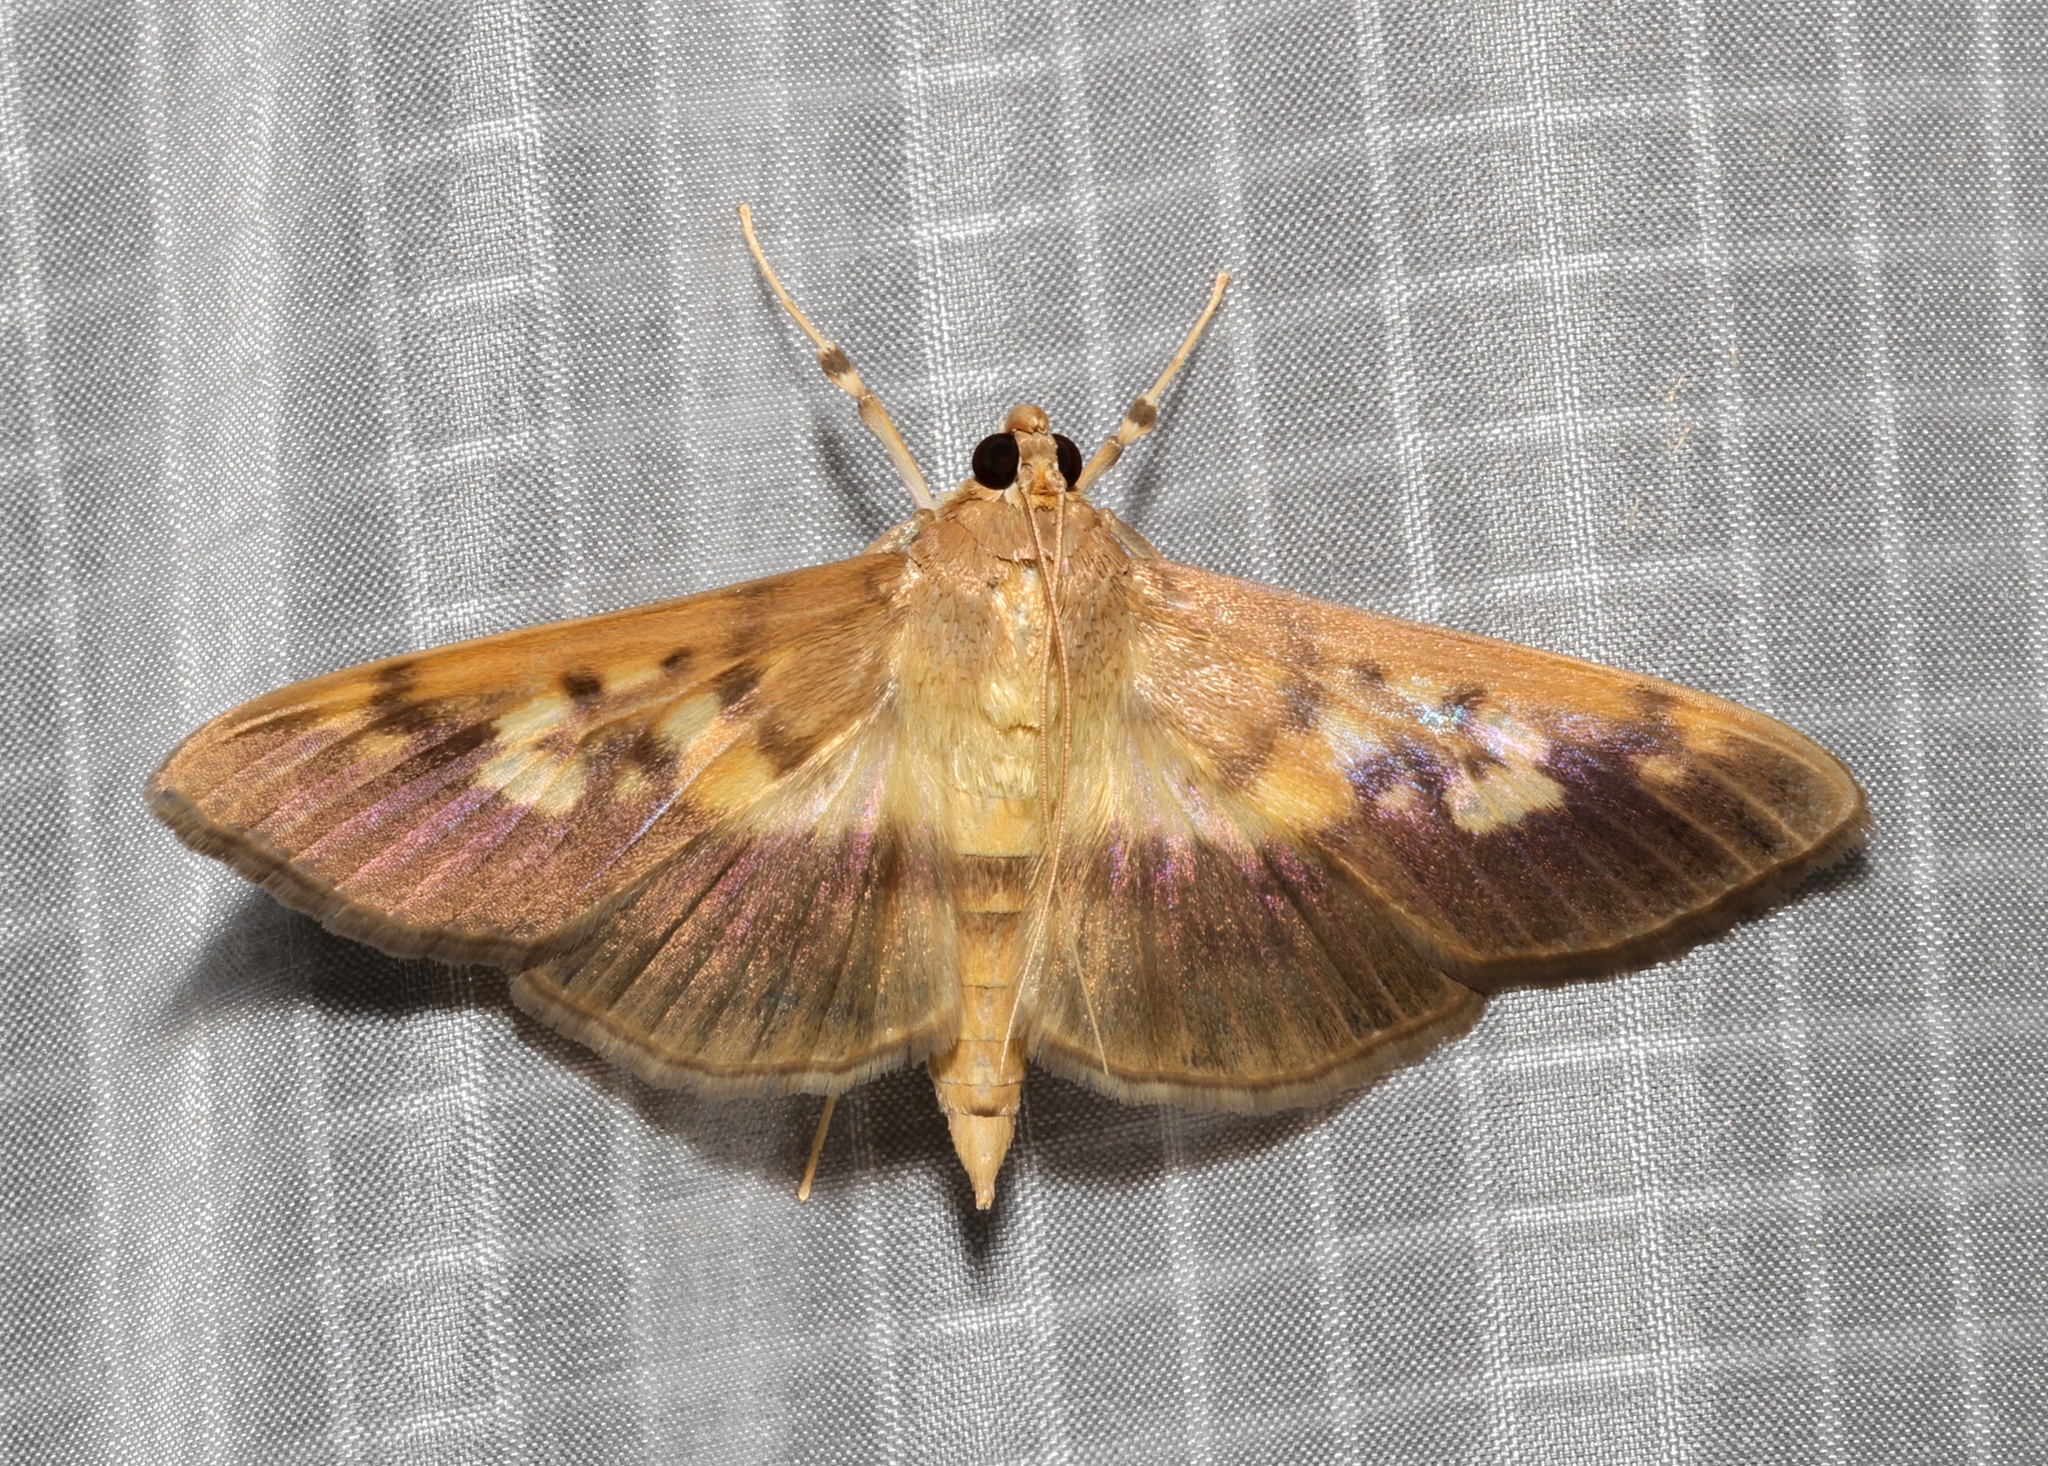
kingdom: Animalia
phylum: Arthropoda
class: Insecta
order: Lepidoptera
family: Crambidae
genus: Syllepte
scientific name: Syllepte sellalis
